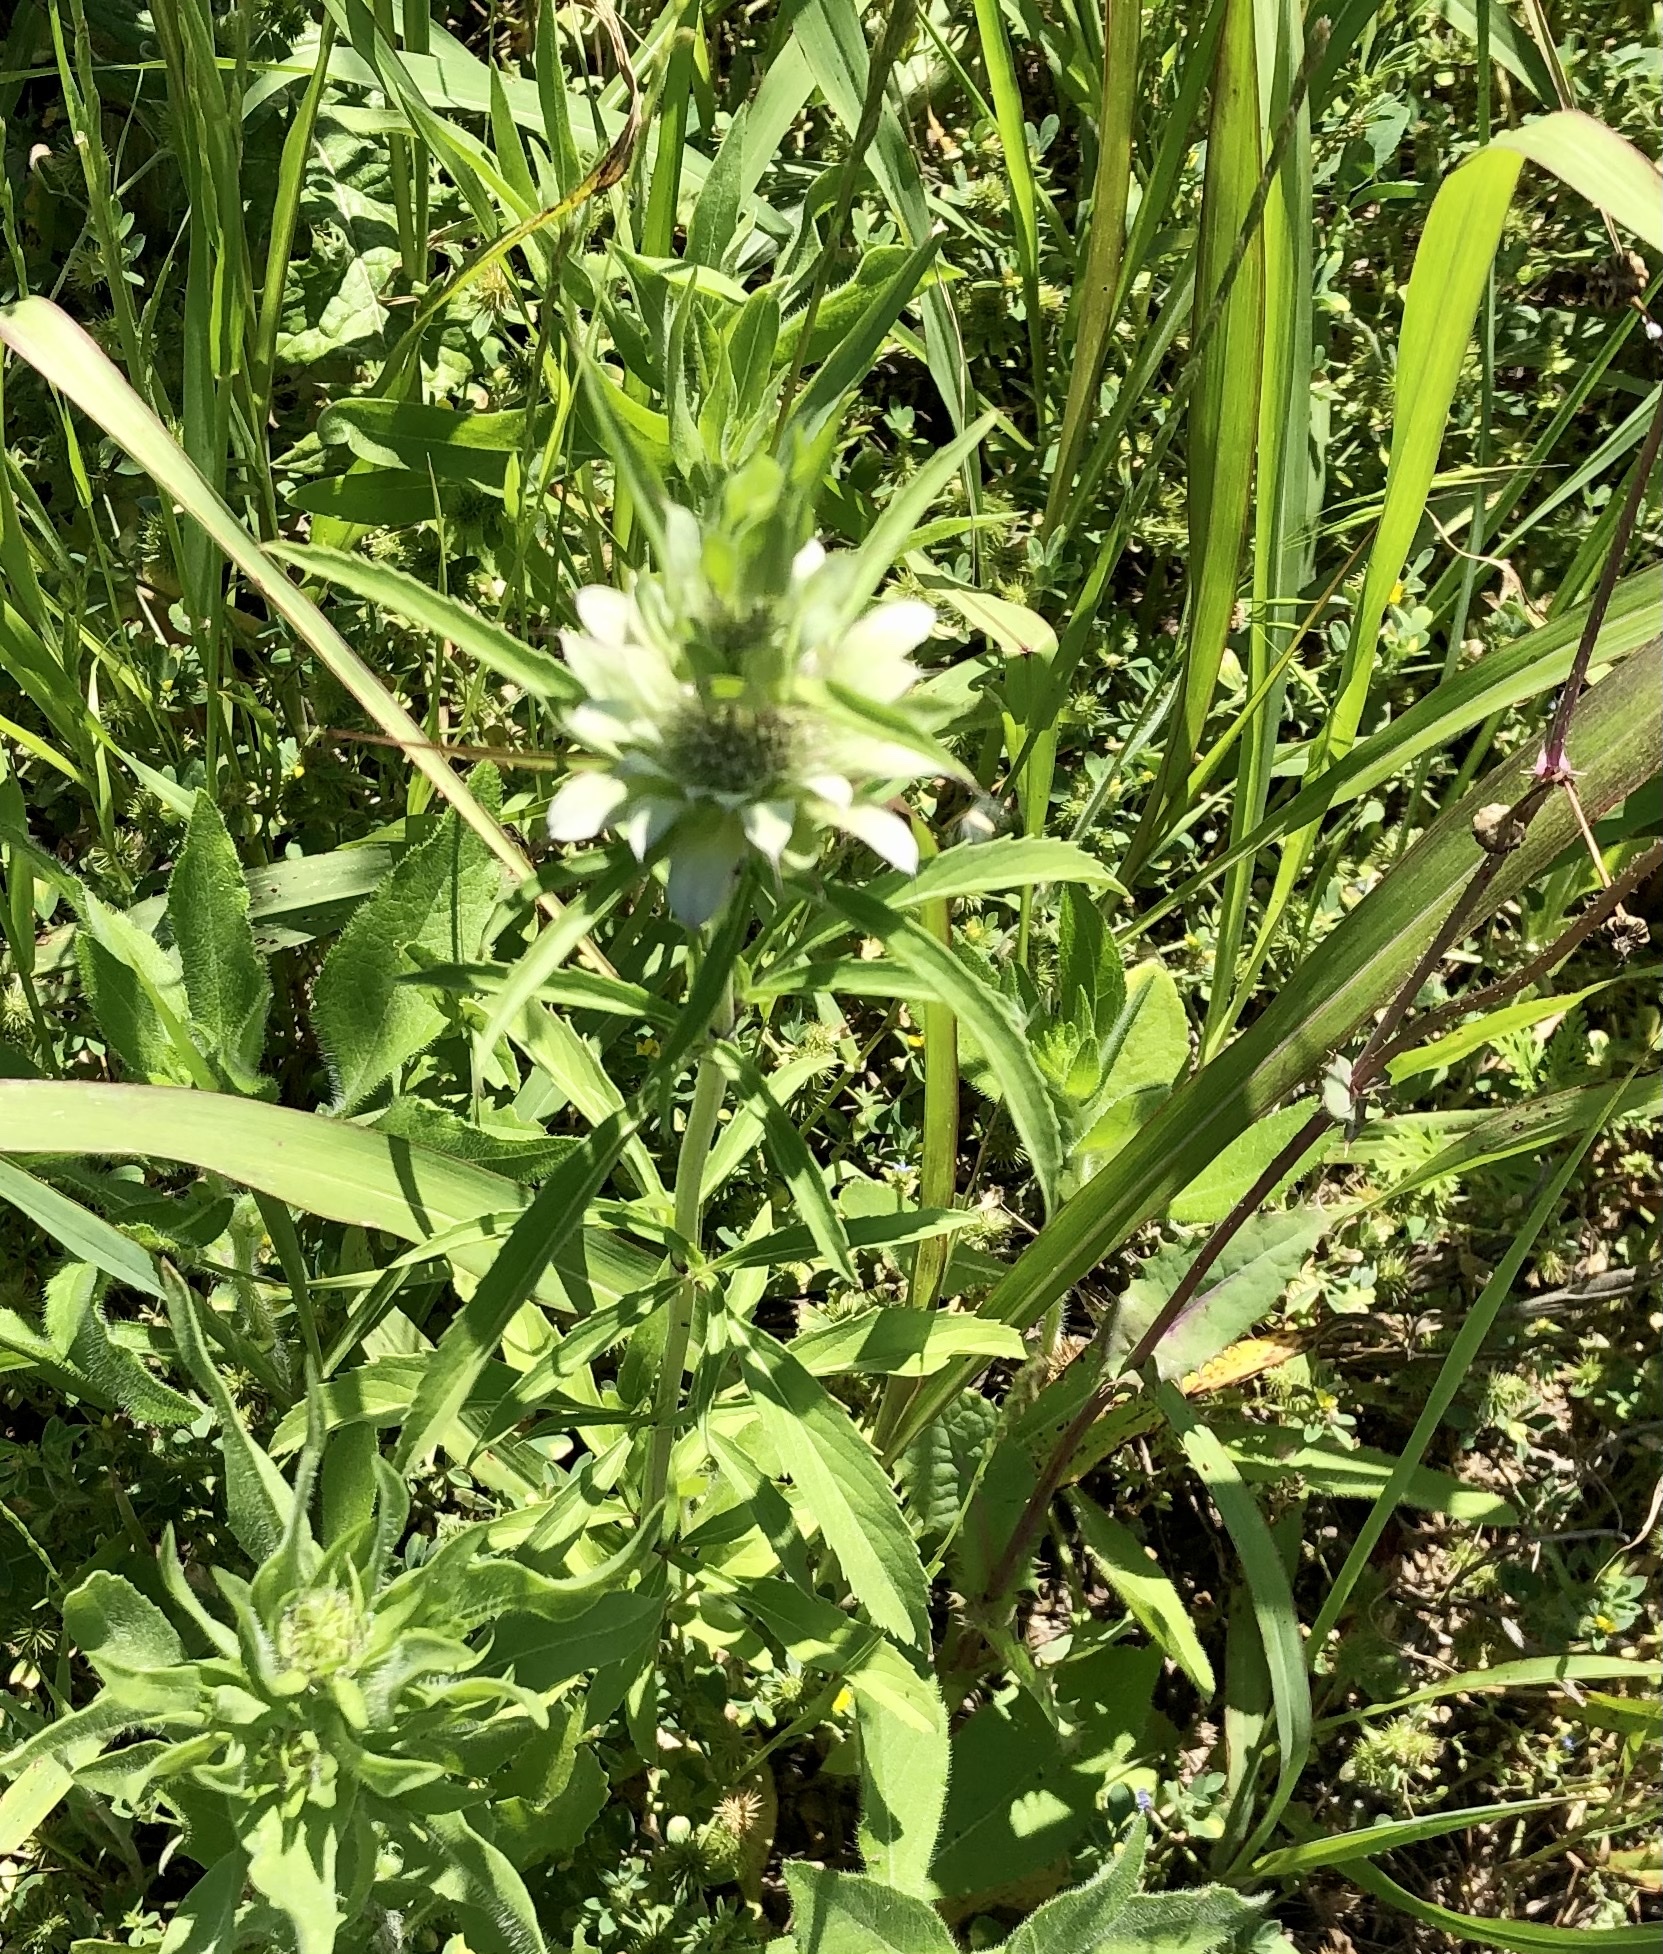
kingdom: Plantae
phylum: Tracheophyta
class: Magnoliopsida
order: Lamiales
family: Lamiaceae
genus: Monarda
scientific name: Monarda citriodora
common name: Lemon beebalm
